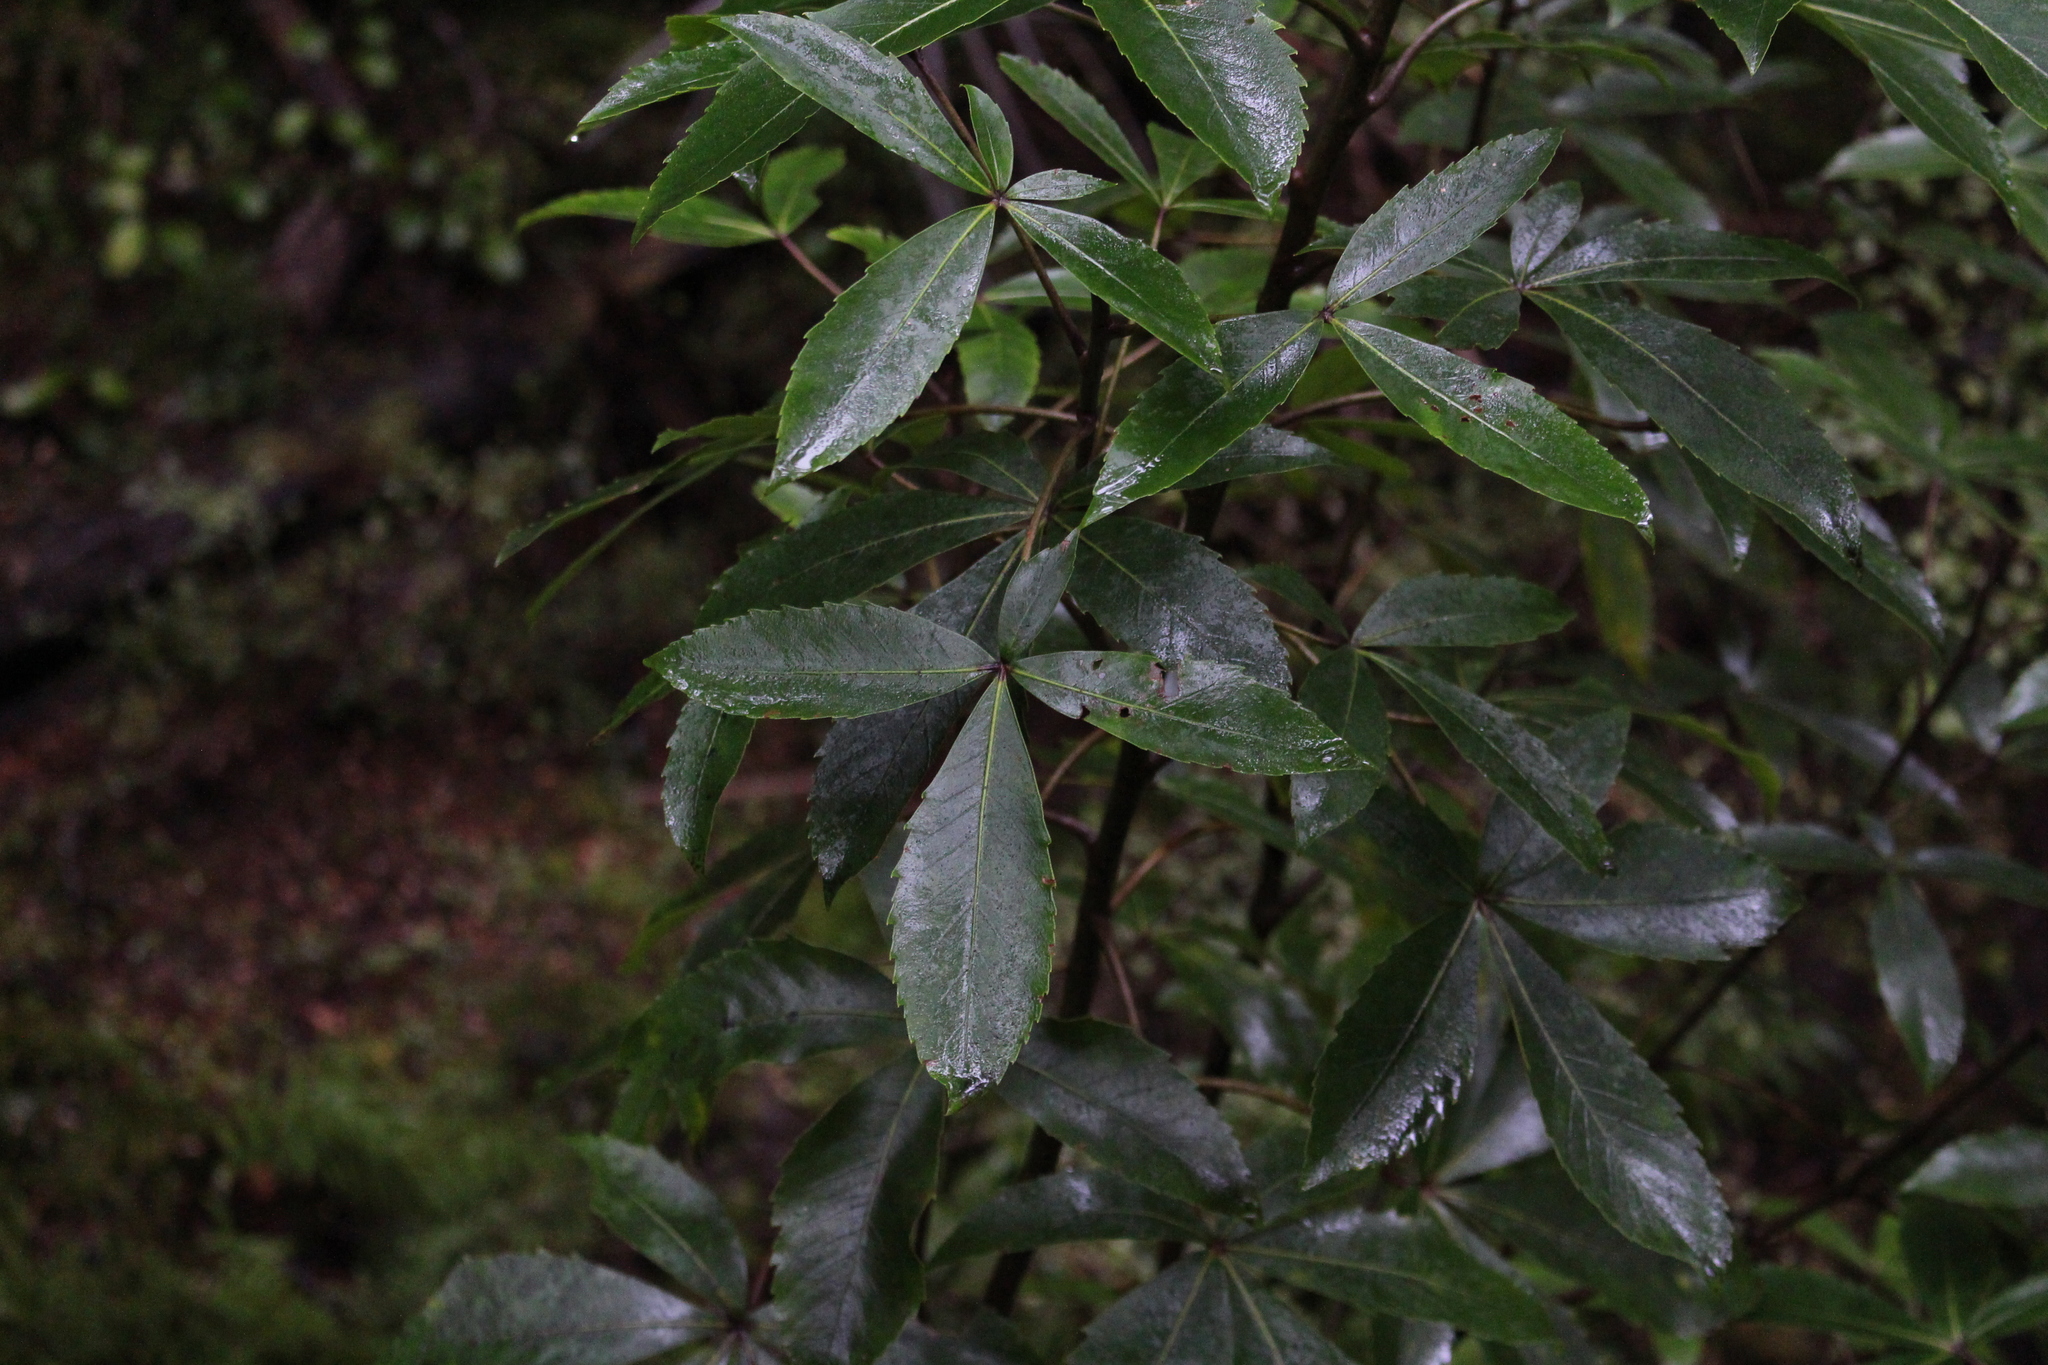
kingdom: Plantae
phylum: Tracheophyta
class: Magnoliopsida
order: Apiales
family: Araliaceae
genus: Neopanax
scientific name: Neopanax colensoi
